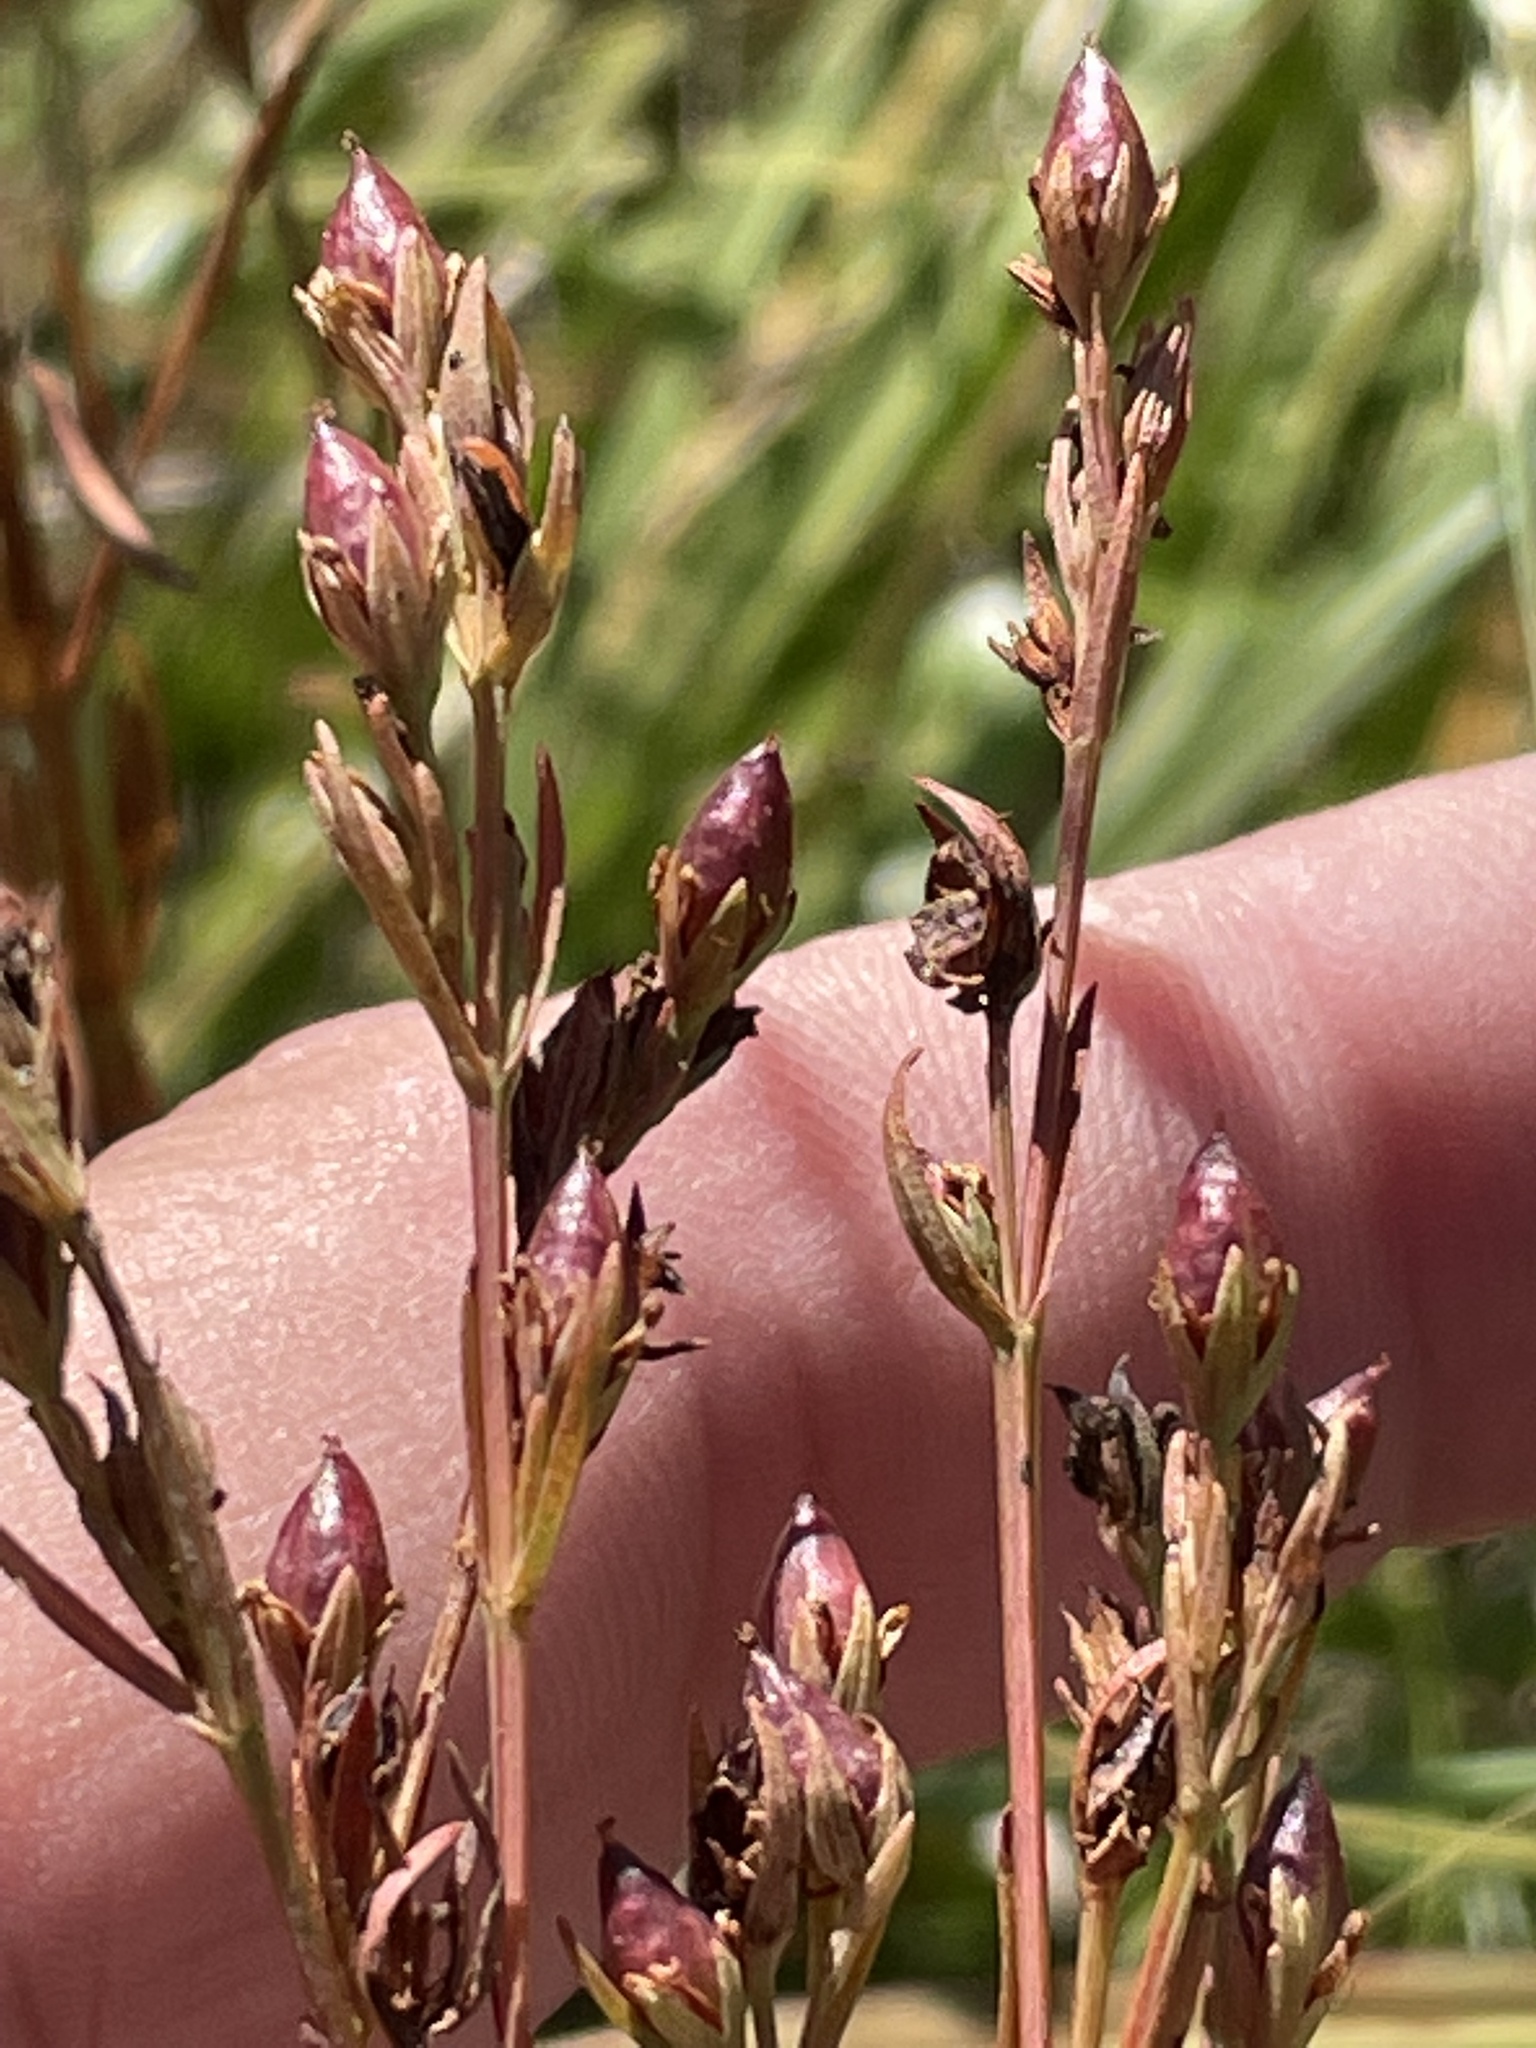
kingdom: Plantae
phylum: Tracheophyta
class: Magnoliopsida
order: Malpighiales
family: Hypericaceae
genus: Hypericum
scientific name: Hypericum drummondii
